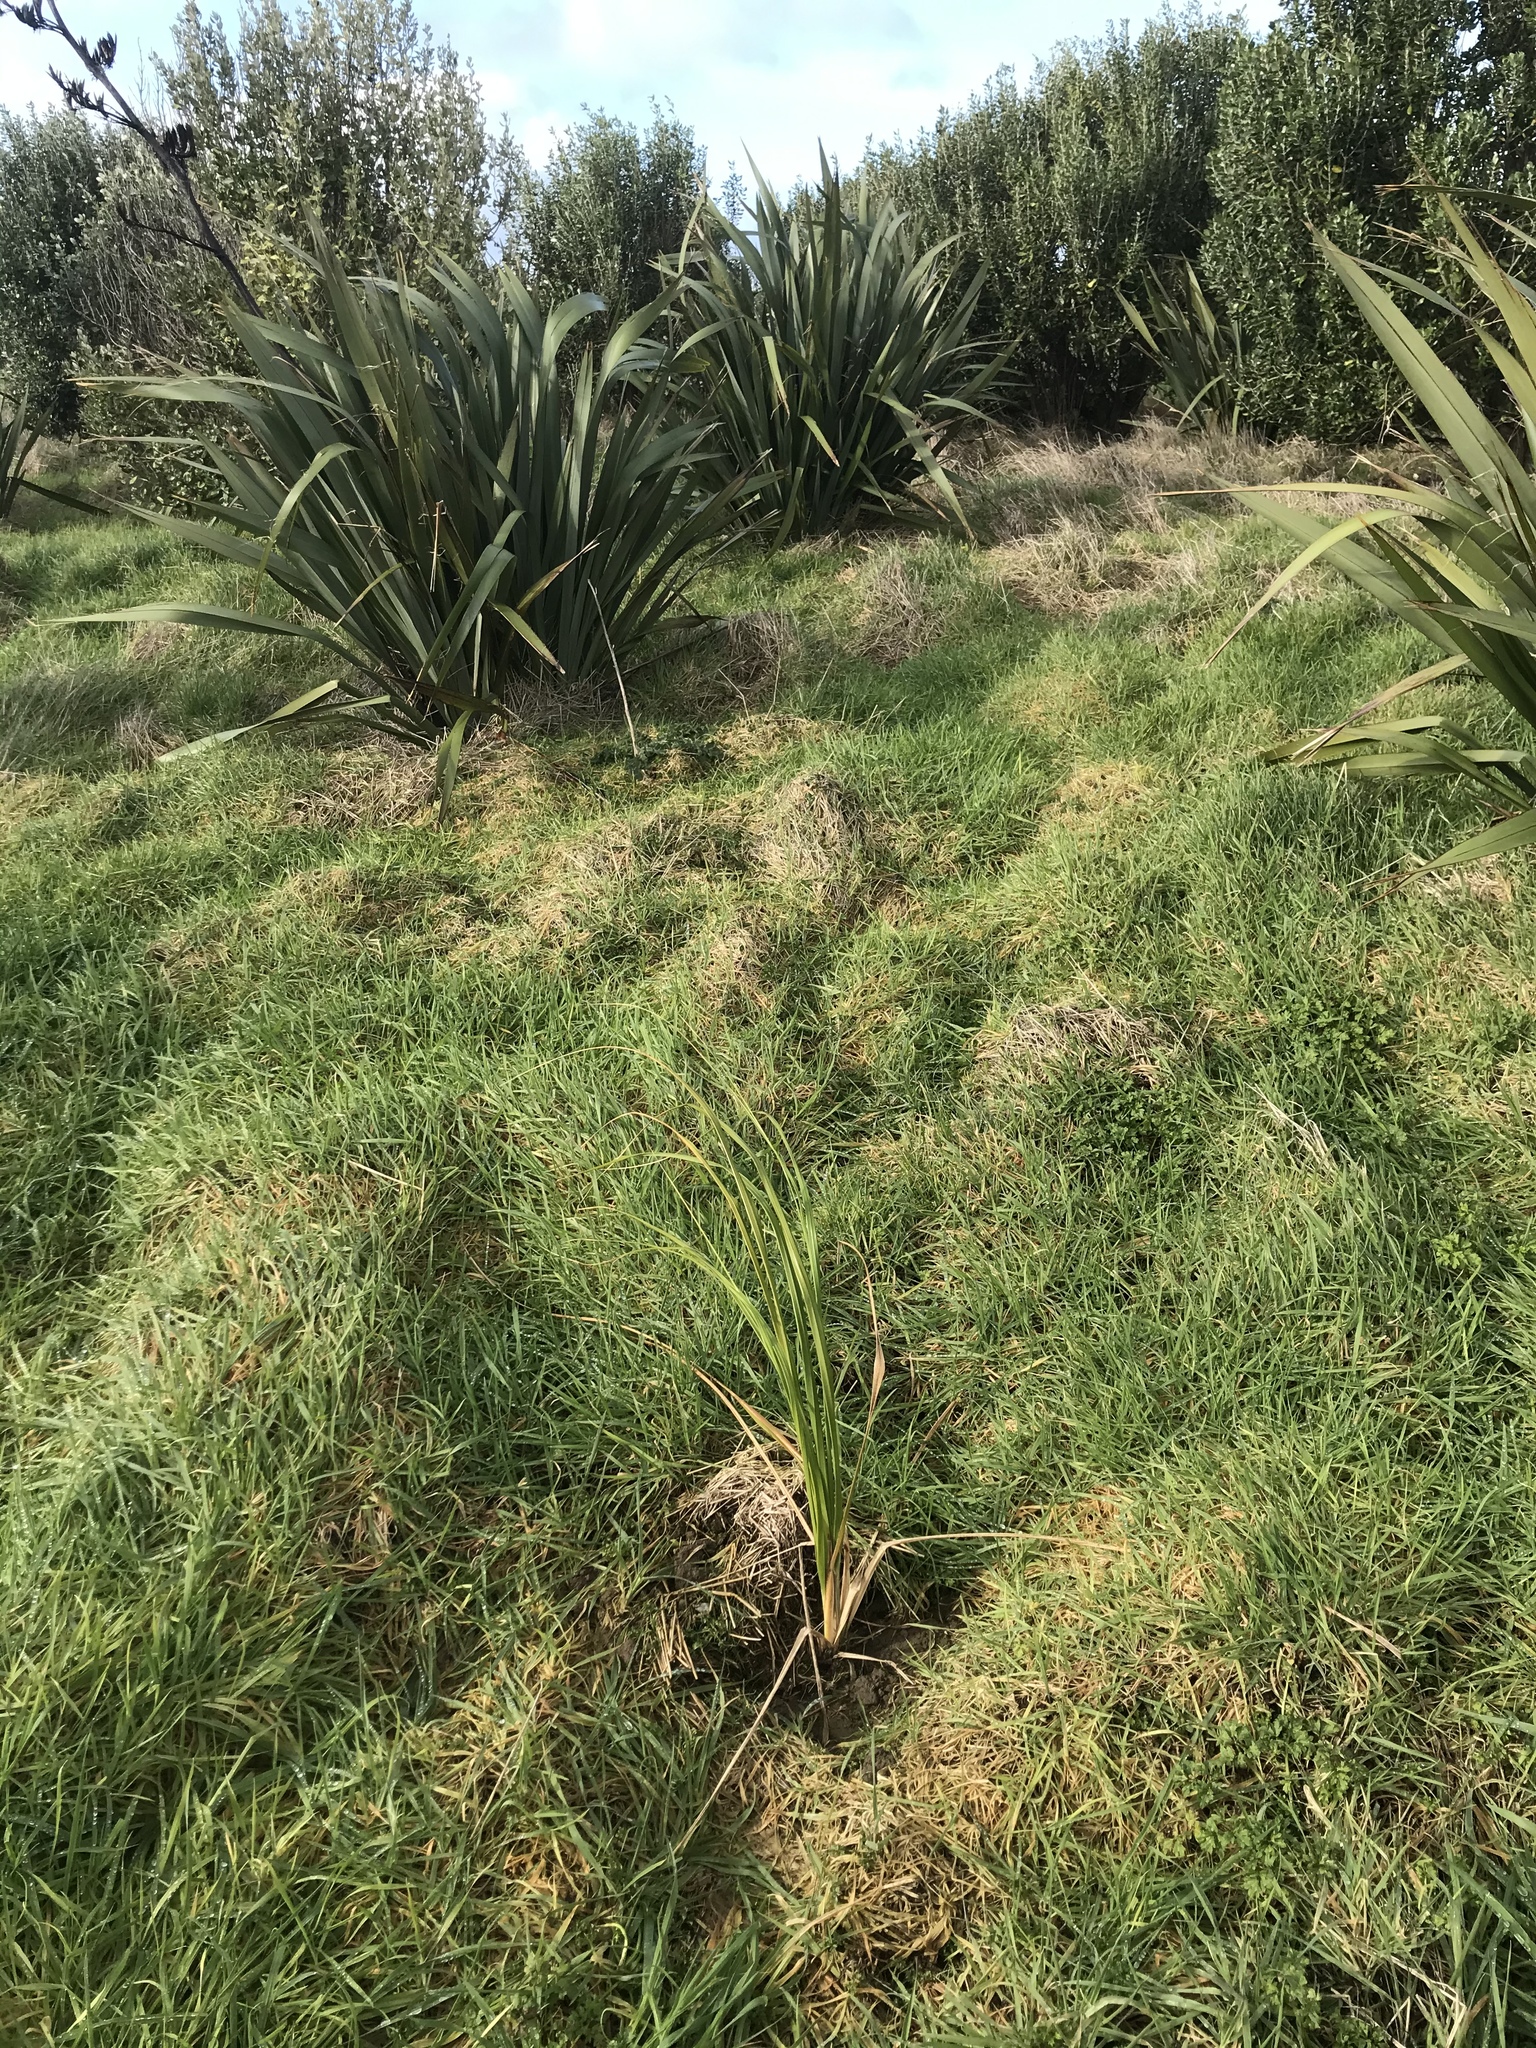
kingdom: Plantae
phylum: Tracheophyta
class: Liliopsida
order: Poales
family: Poaceae
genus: Austroderia
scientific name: Austroderia turbaria
